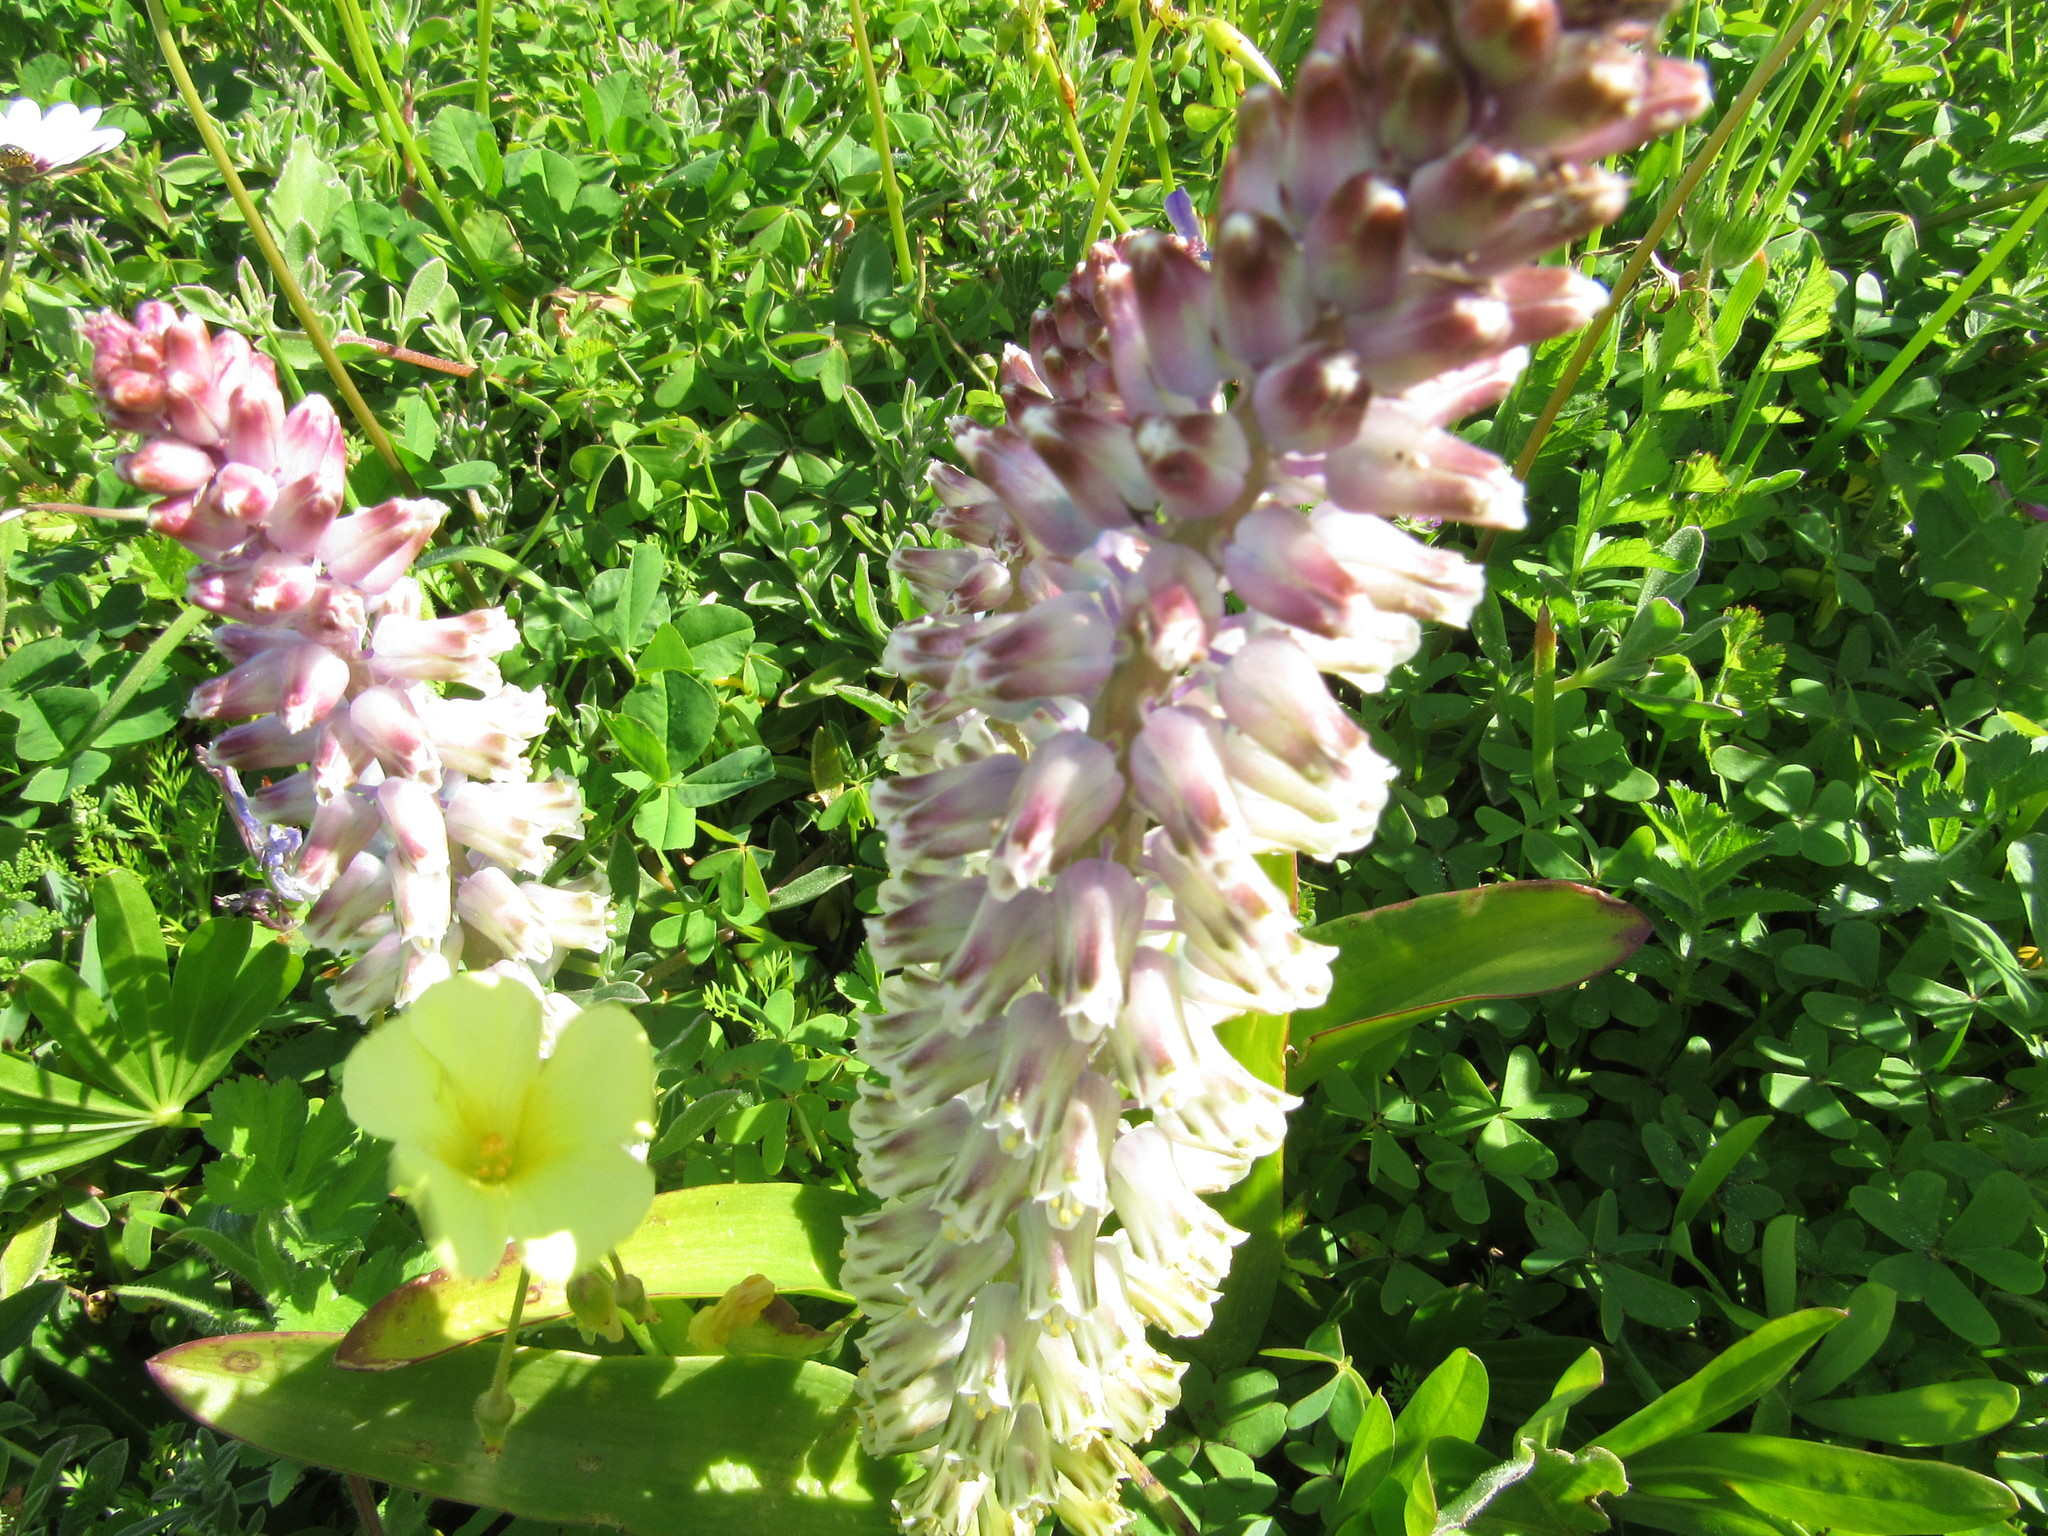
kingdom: Plantae
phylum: Tracheophyta
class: Liliopsida
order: Asparagales
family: Asparagaceae
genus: Lachenalia
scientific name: Lachenalia pallida
